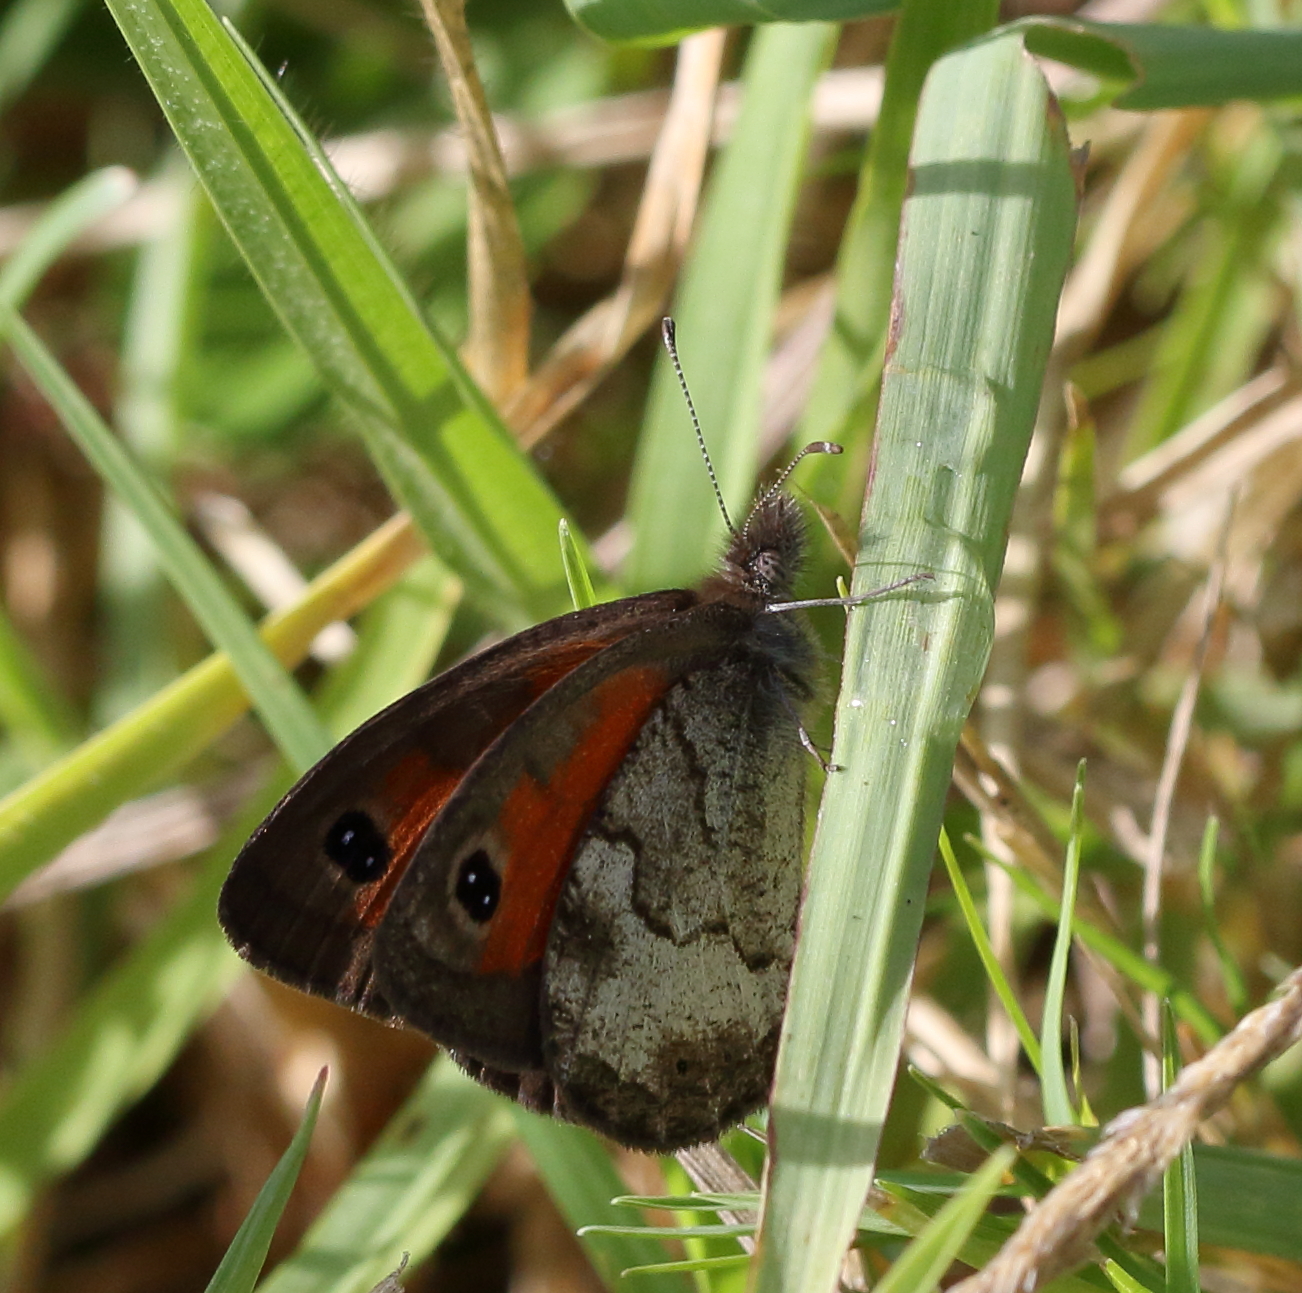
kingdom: Animalia
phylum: Arthropoda
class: Insecta
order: Lepidoptera
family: Nymphalidae
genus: Pseudonympha
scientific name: Pseudonympha magus
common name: Silver-bottom brown
